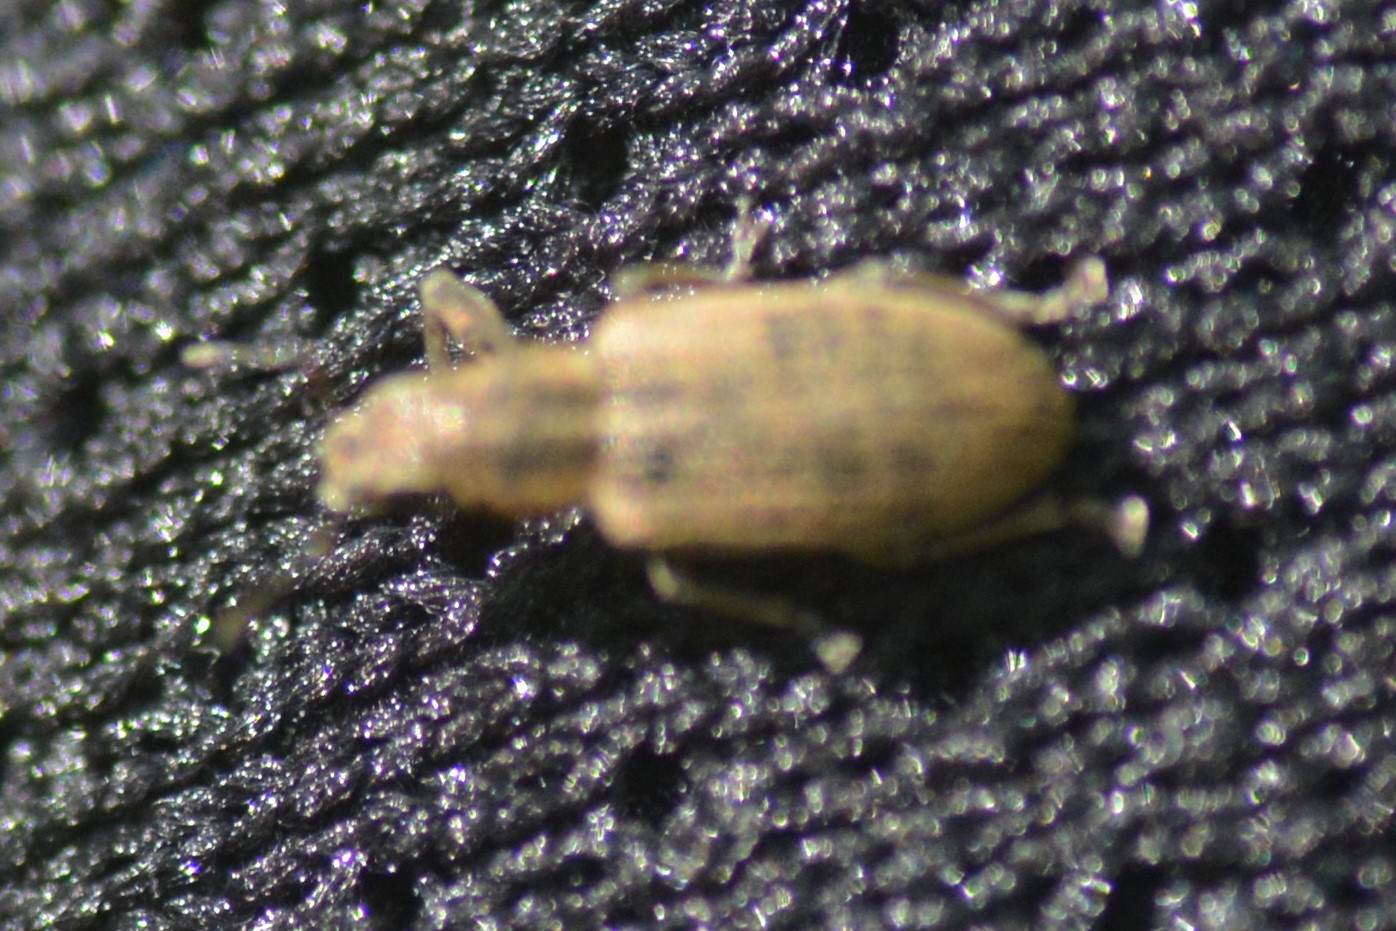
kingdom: Animalia
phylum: Arthropoda
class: Insecta
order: Coleoptera
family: Curculionidae
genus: Sitona
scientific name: Sitona lineatus
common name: Weevil
